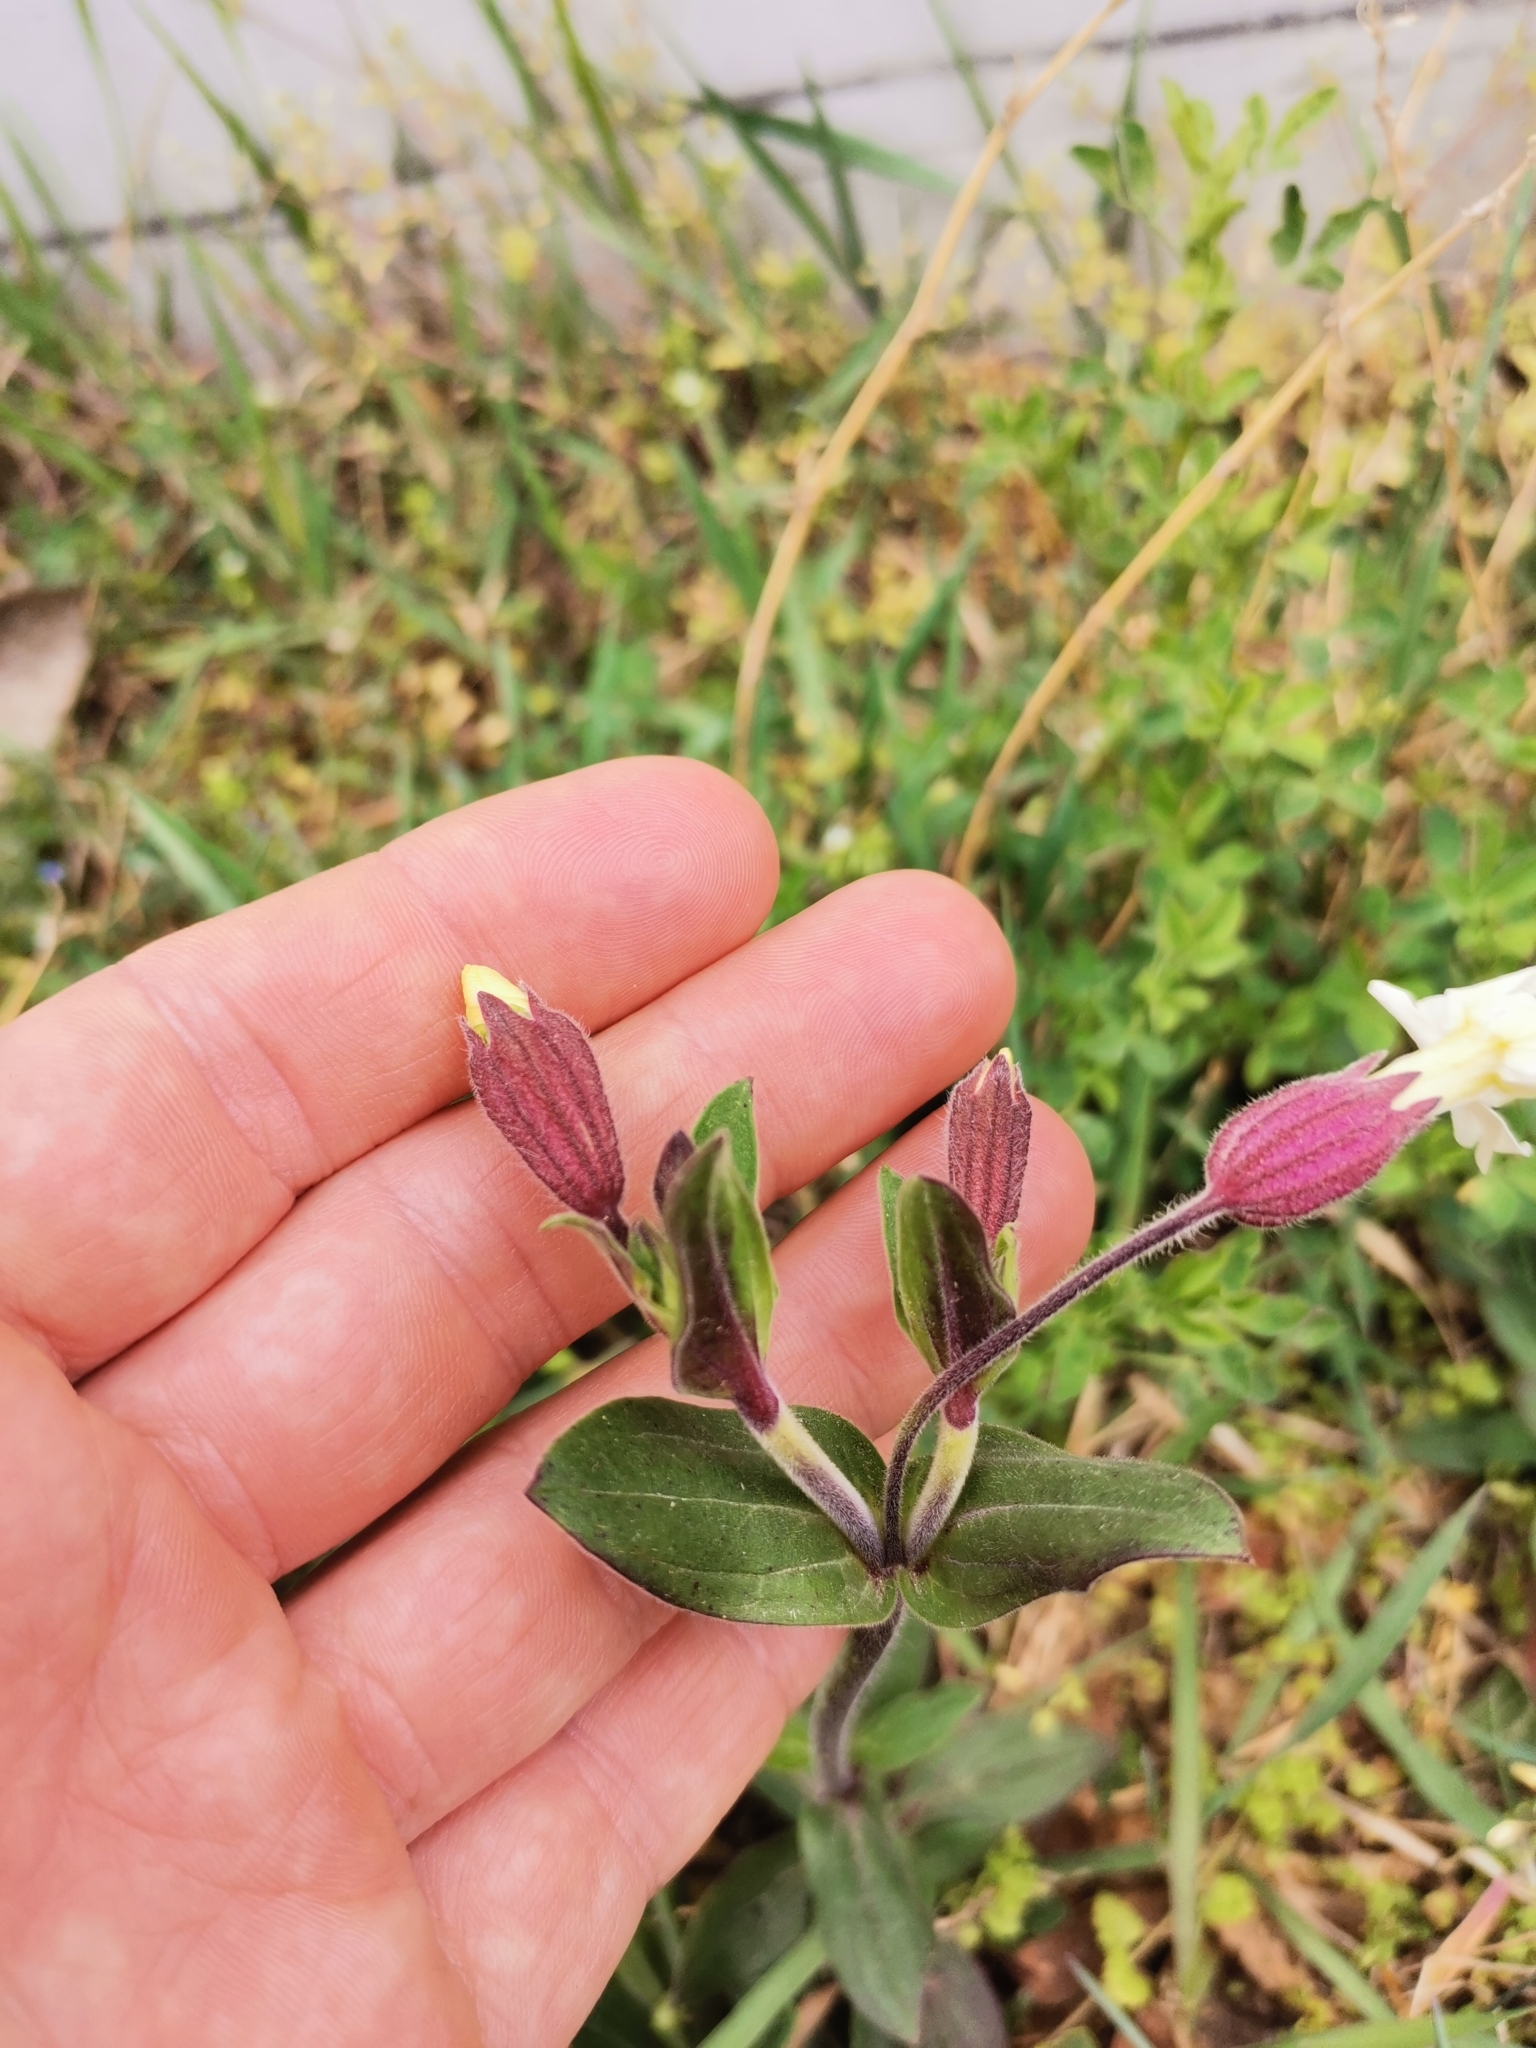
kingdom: Plantae
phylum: Tracheophyta
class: Magnoliopsida
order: Caryophyllales
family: Caryophyllaceae
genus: Silene
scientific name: Silene latifolia
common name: White campion
